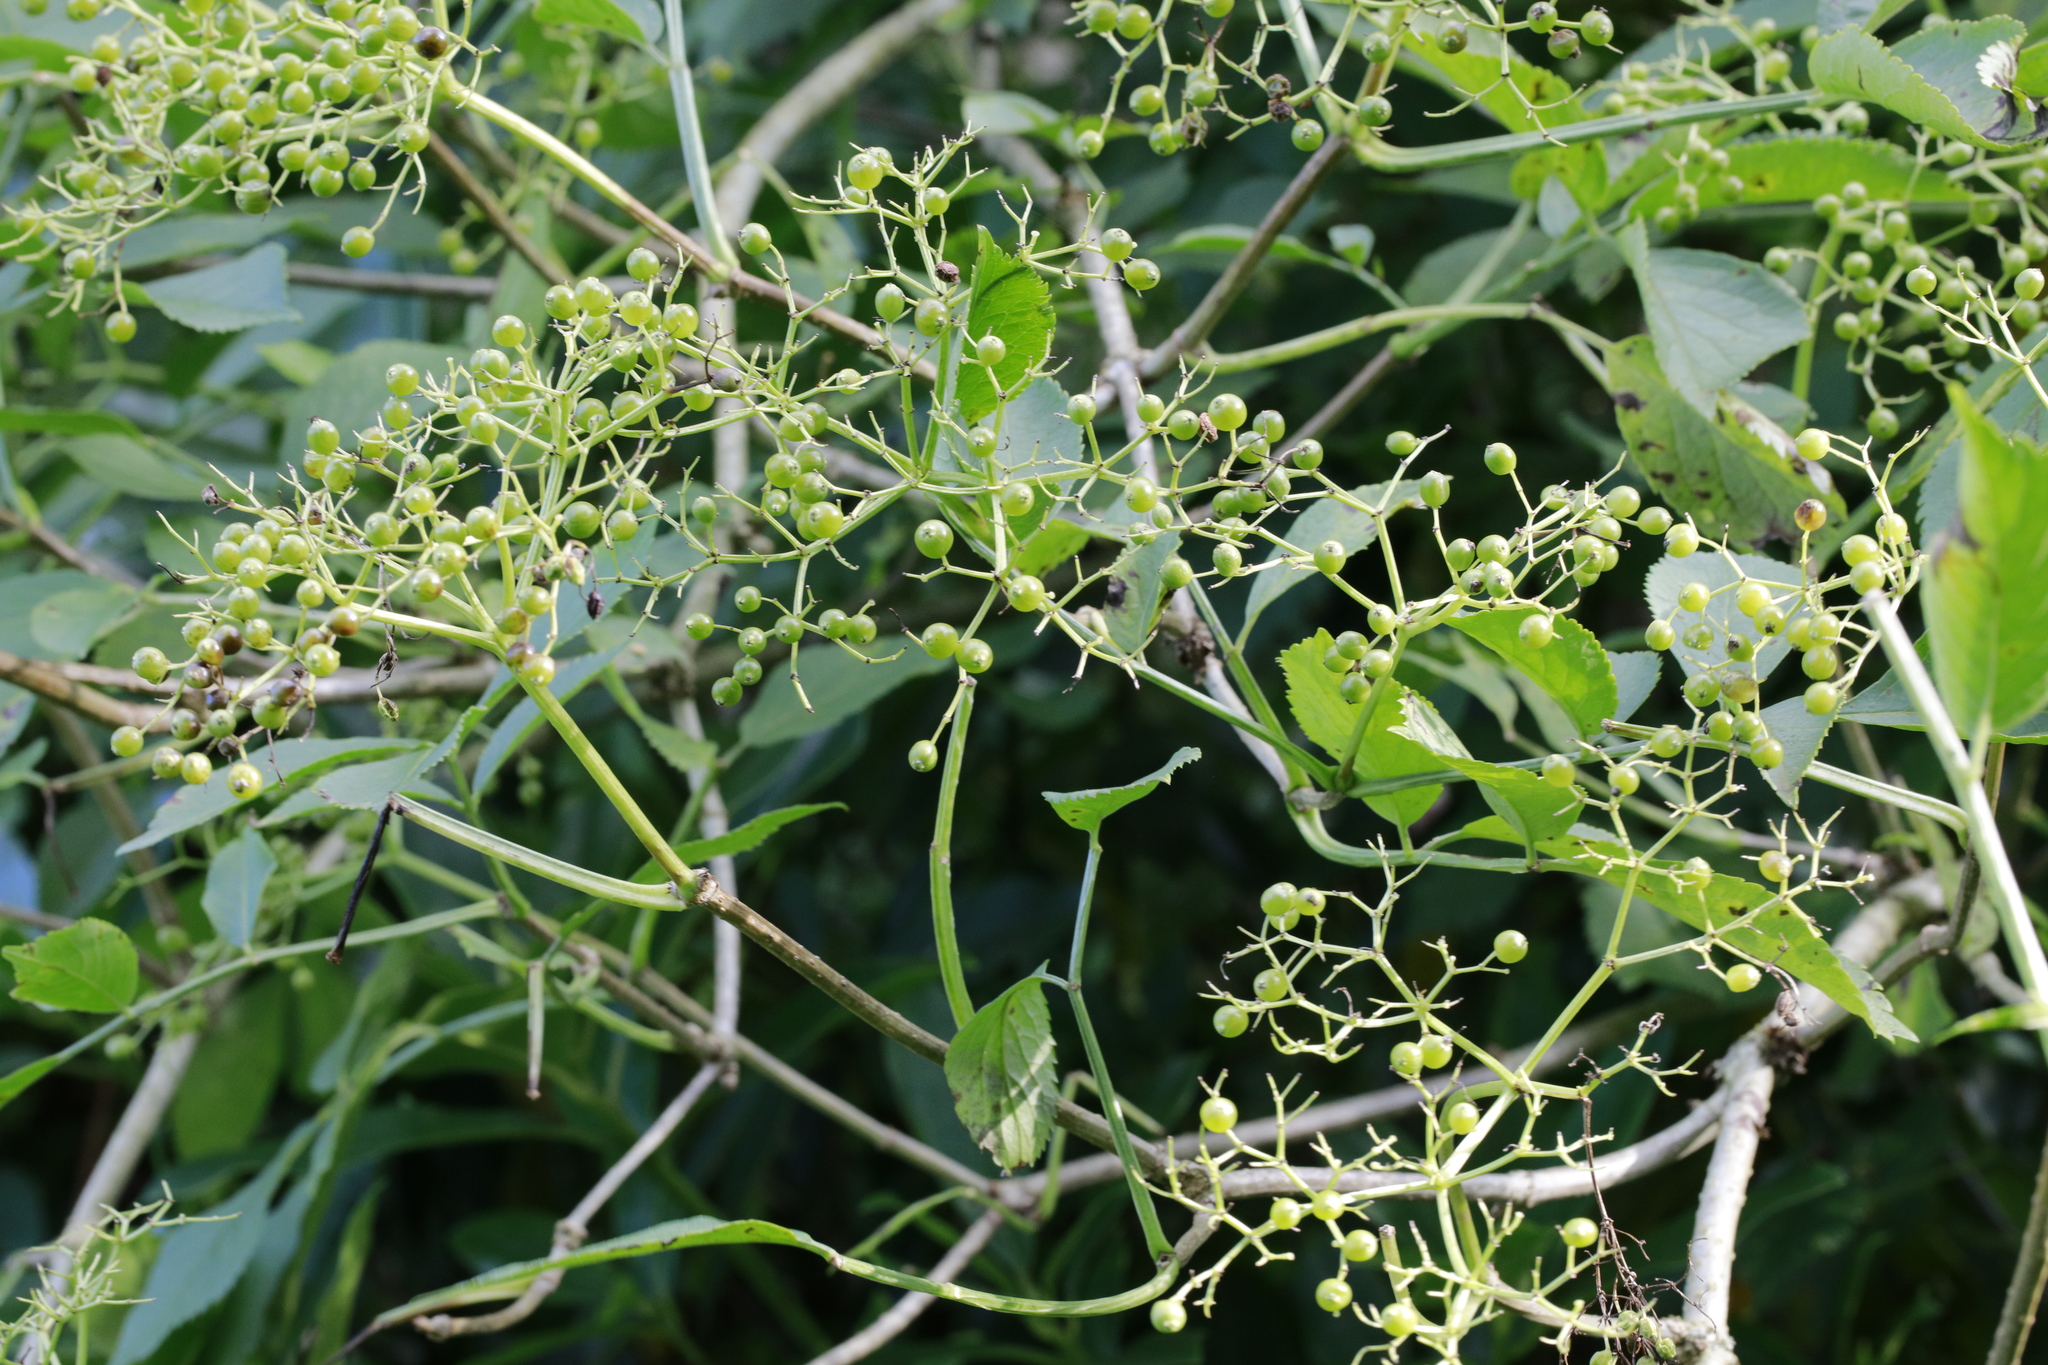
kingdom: Plantae
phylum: Tracheophyta
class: Magnoliopsida
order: Dipsacales
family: Viburnaceae
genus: Sambucus
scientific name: Sambucus nigra
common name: Elder
